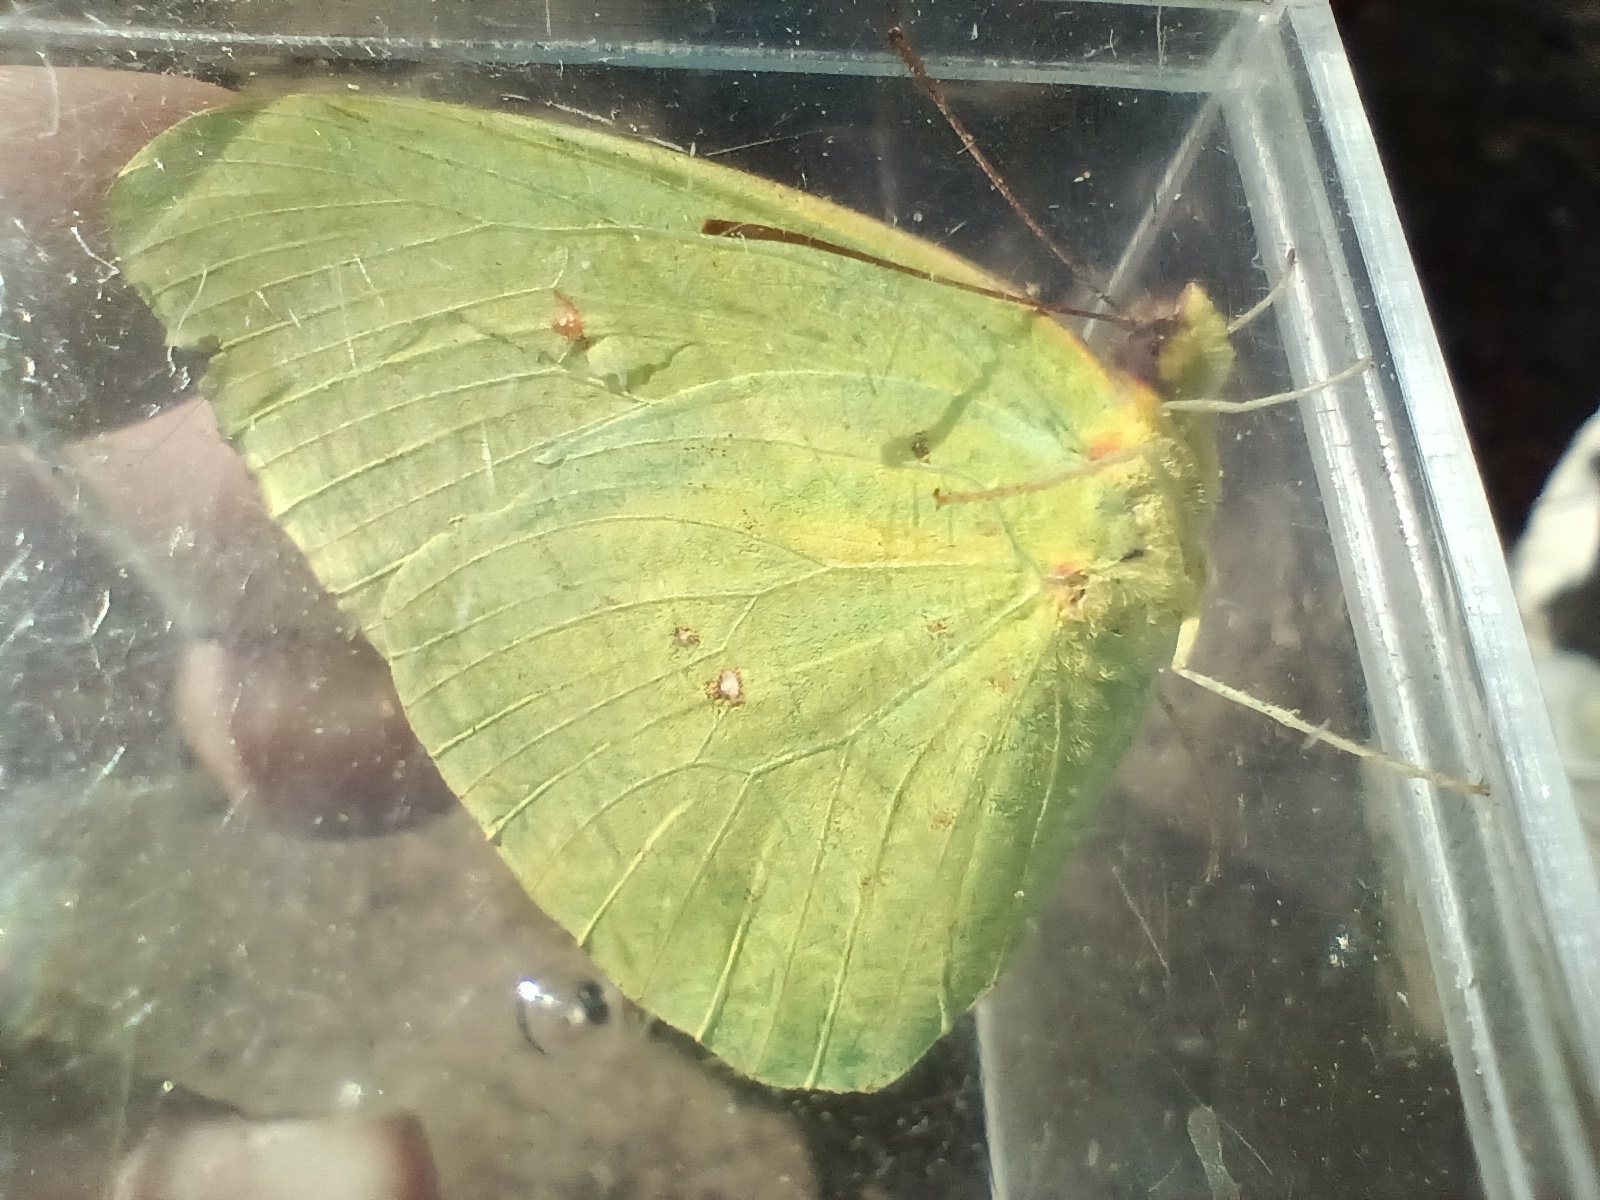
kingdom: Animalia
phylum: Arthropoda
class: Insecta
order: Lepidoptera
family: Pieridae
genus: Phoebis
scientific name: Phoebis sennae
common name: Cloudless sulphur
